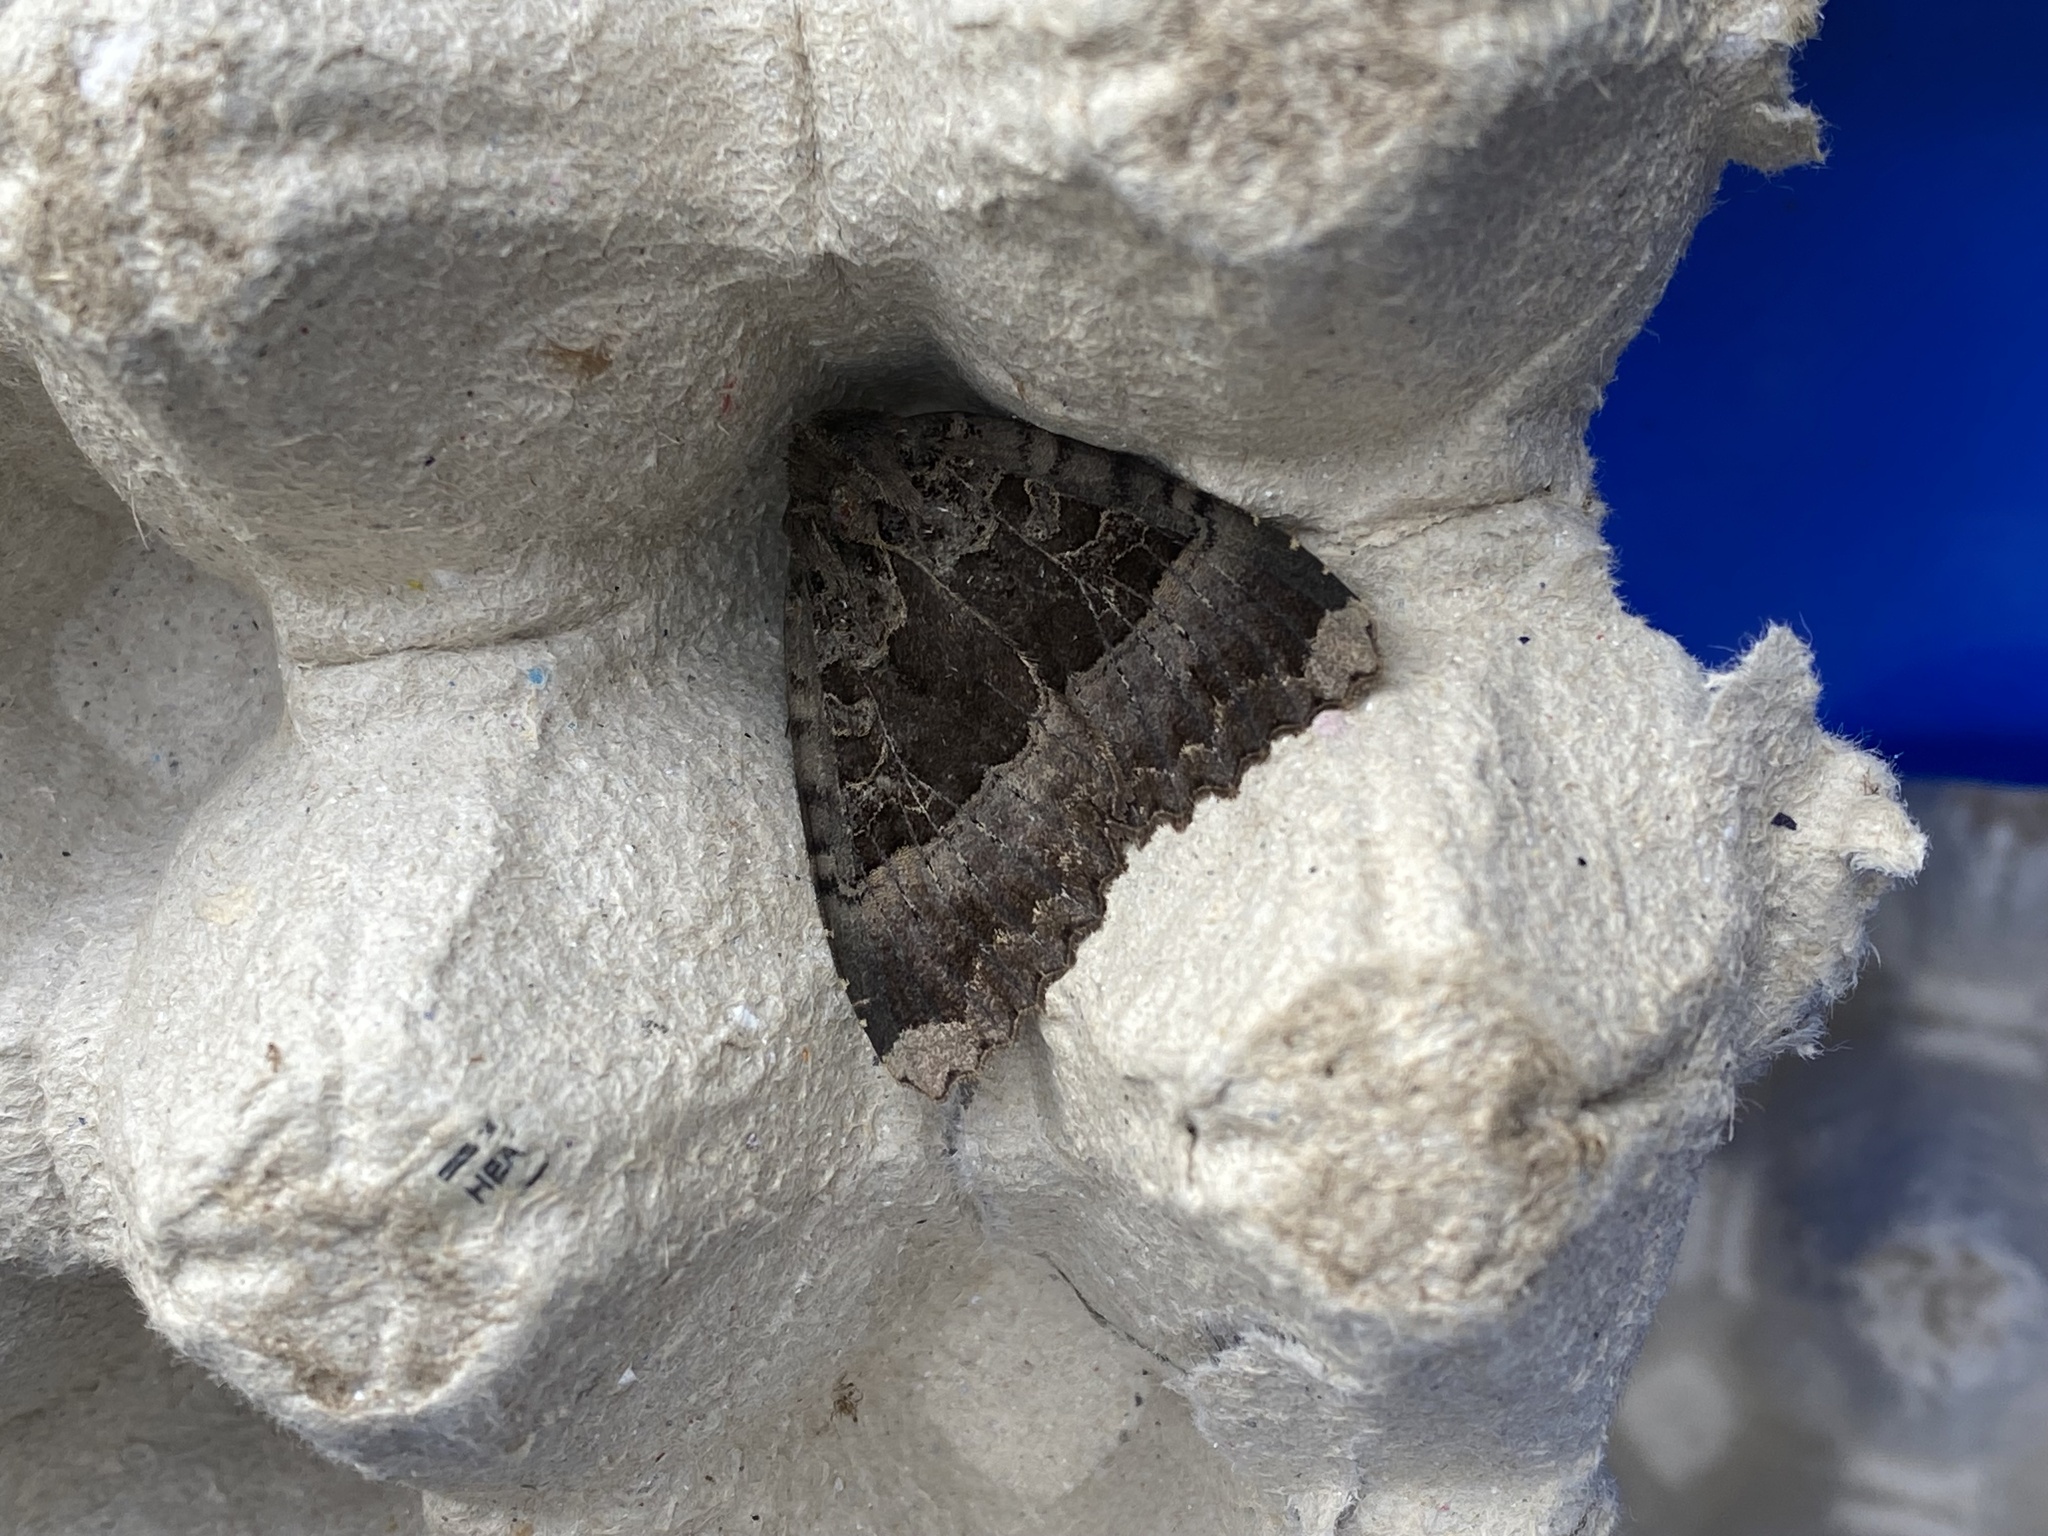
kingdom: Animalia
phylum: Arthropoda
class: Insecta
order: Lepidoptera
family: Noctuidae
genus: Mormo
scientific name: Mormo maura
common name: Old lady
